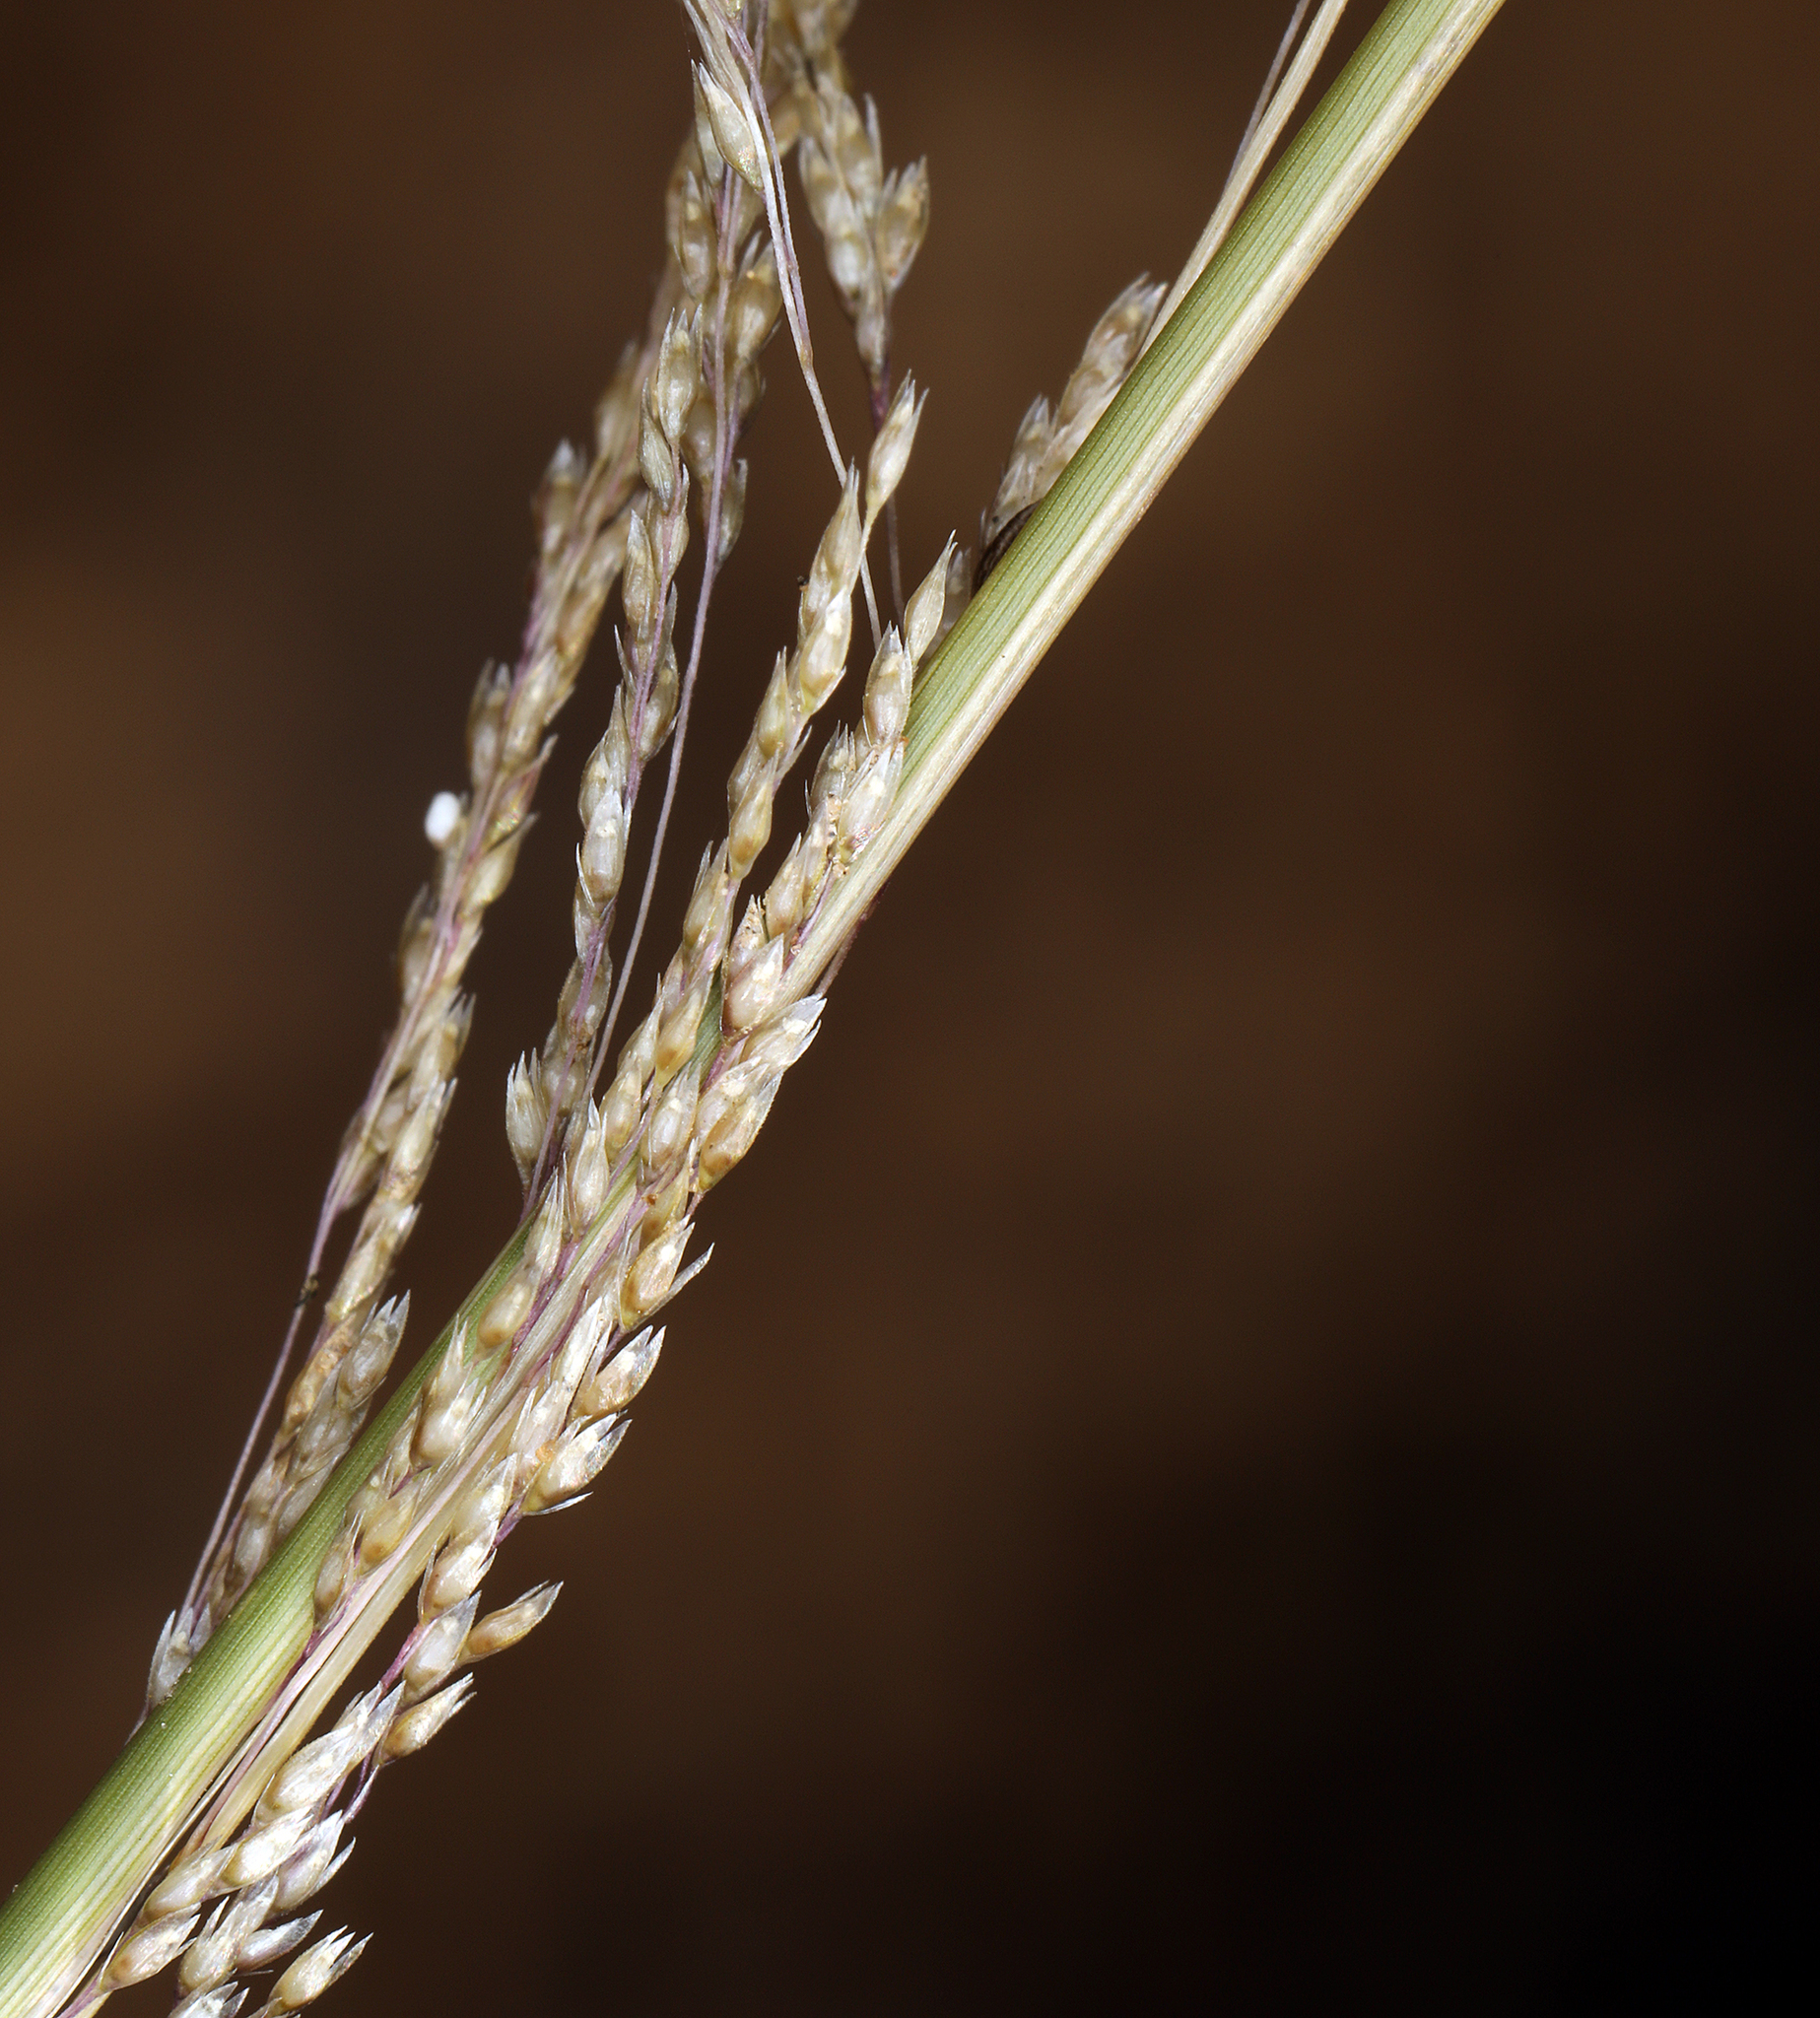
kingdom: Plantae
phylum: Tracheophyta
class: Liliopsida
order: Poales
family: Poaceae
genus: Sporobolus
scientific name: Sporobolus cryptandrus
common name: Sand dropseed
